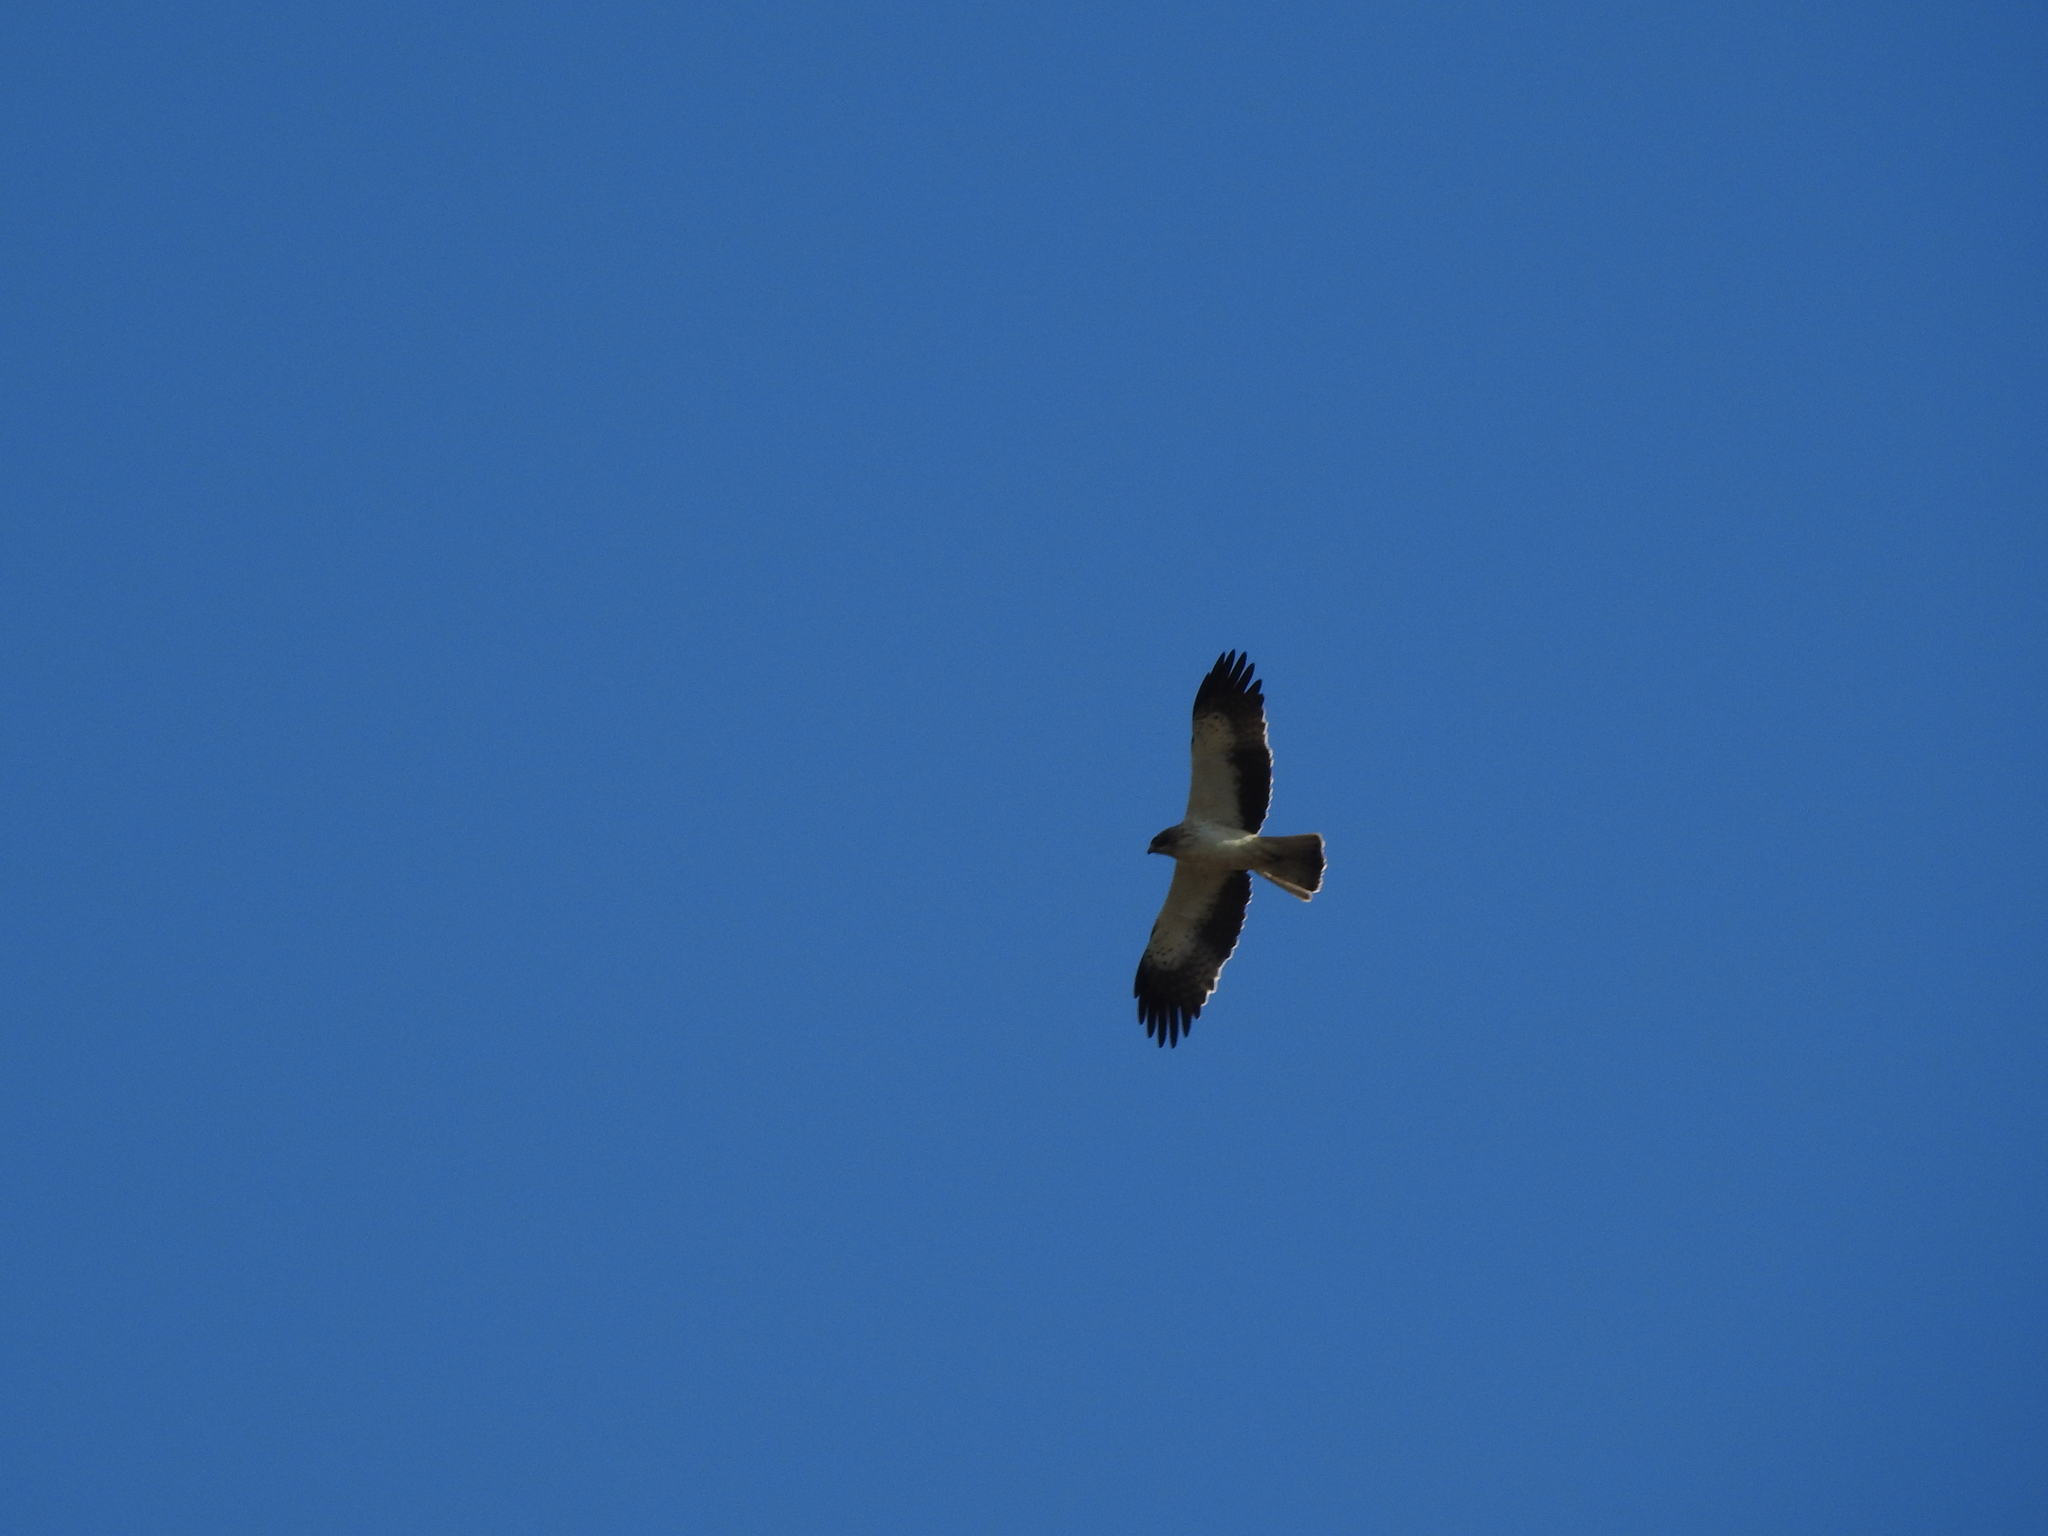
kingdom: Animalia
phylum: Chordata
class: Aves
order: Accipitriformes
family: Accipitridae
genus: Hieraaetus
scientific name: Hieraaetus pennatus
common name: Booted eagle
